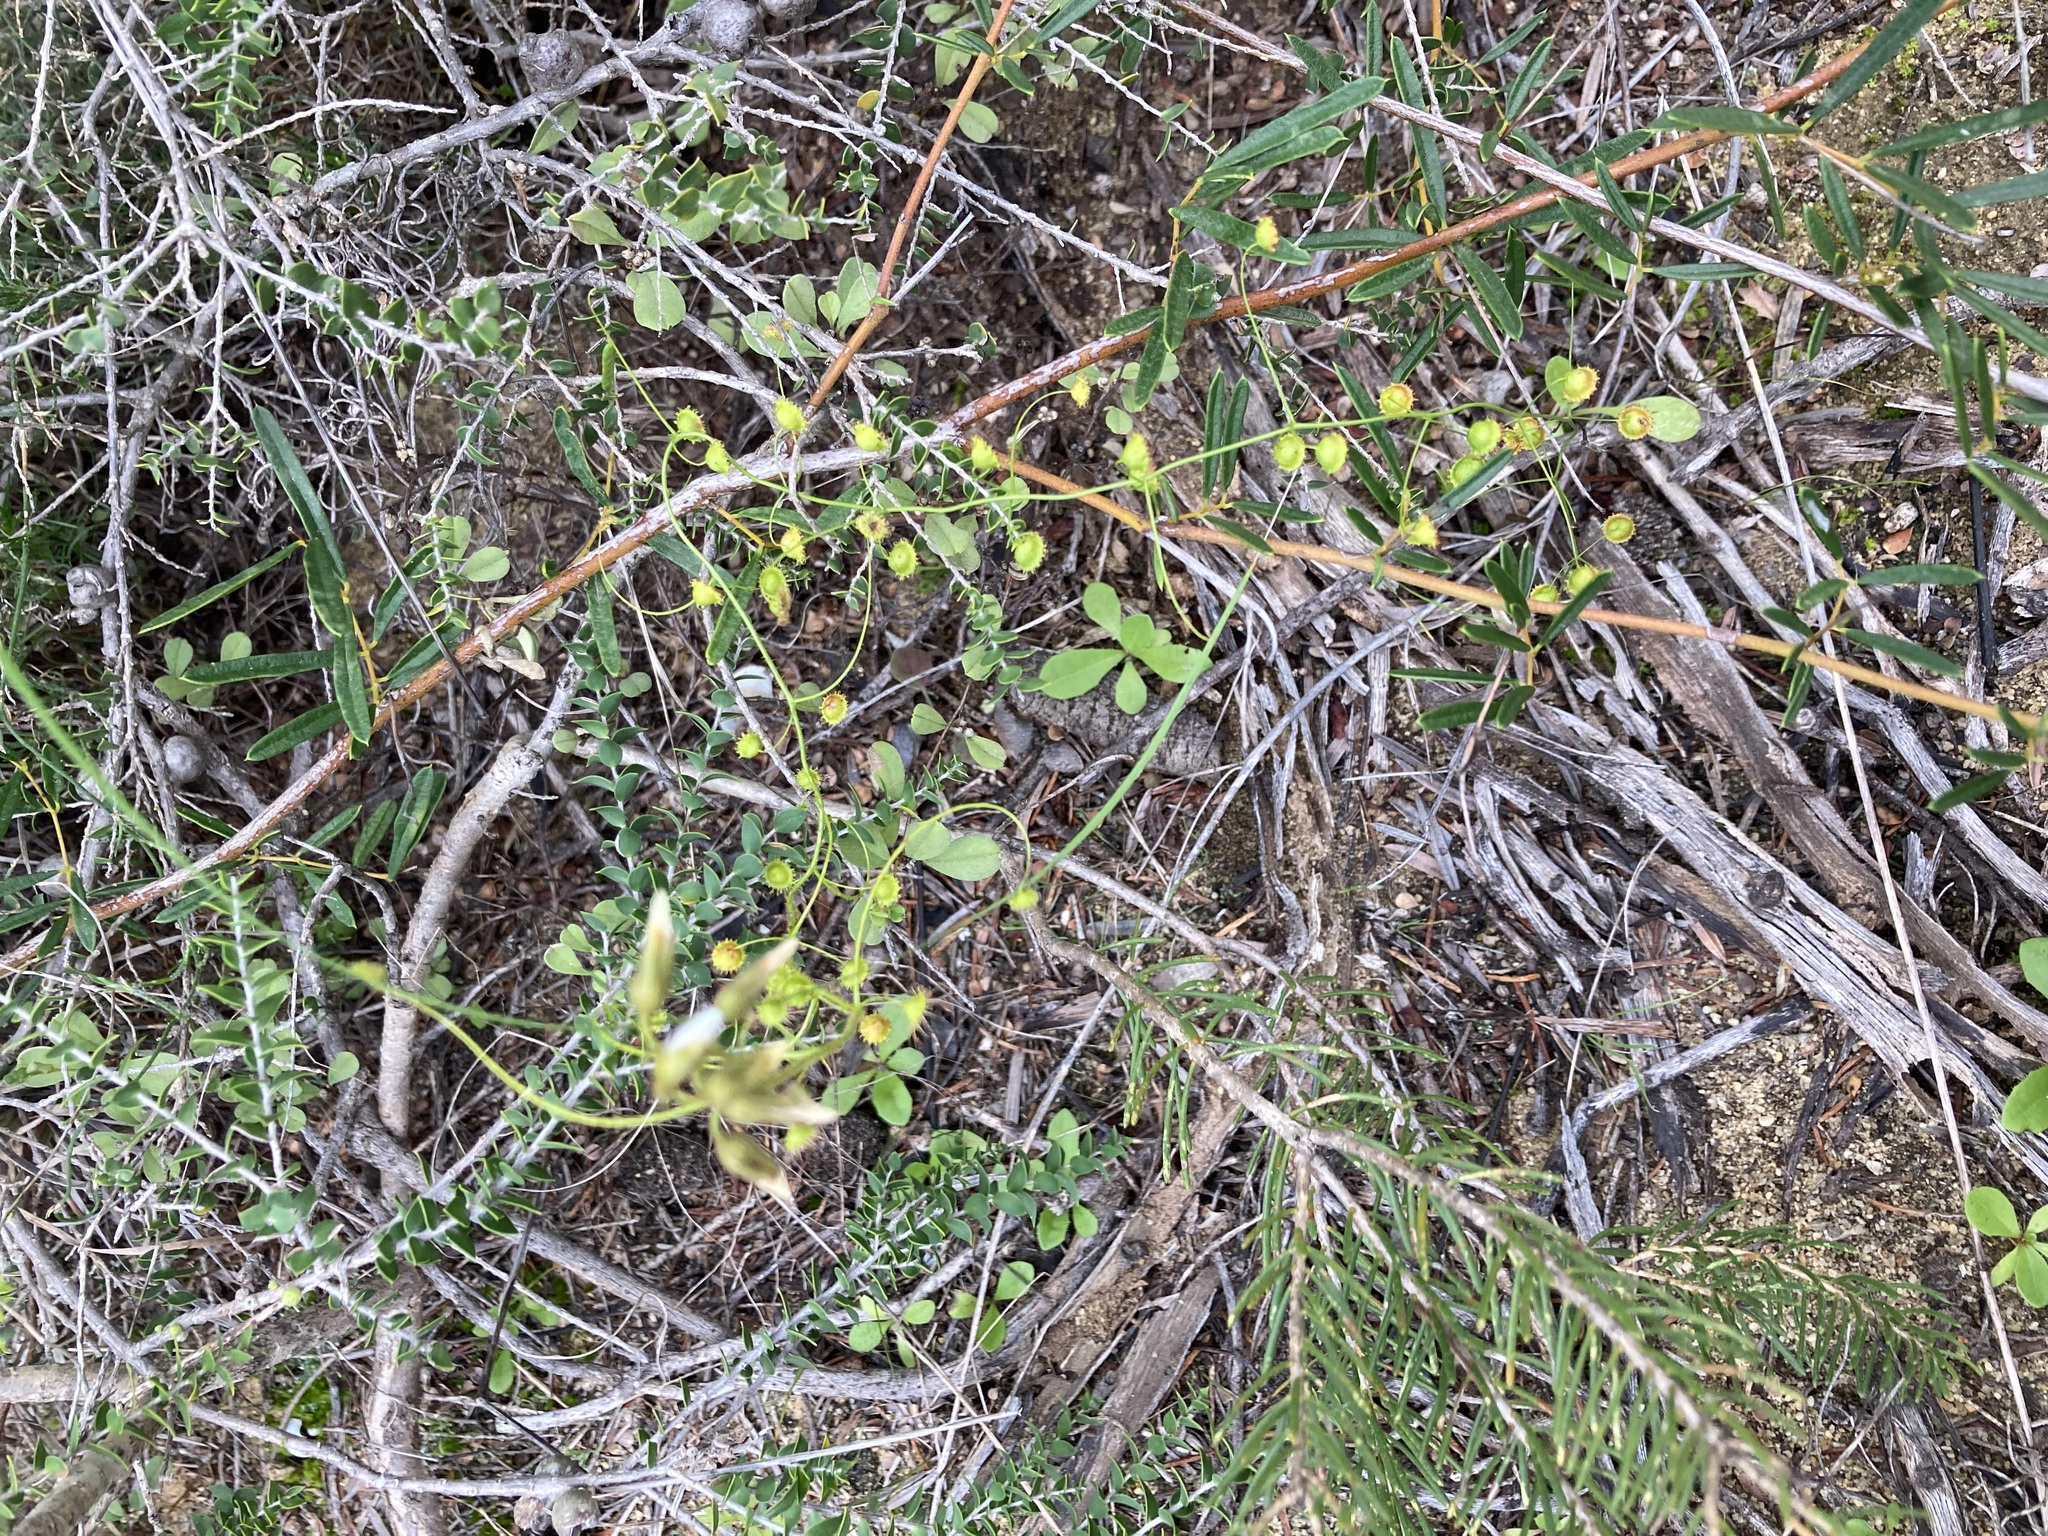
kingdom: Plantae
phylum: Tracheophyta
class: Magnoliopsida
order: Caryophyllales
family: Droseraceae
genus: Drosera
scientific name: Drosera macrantha
